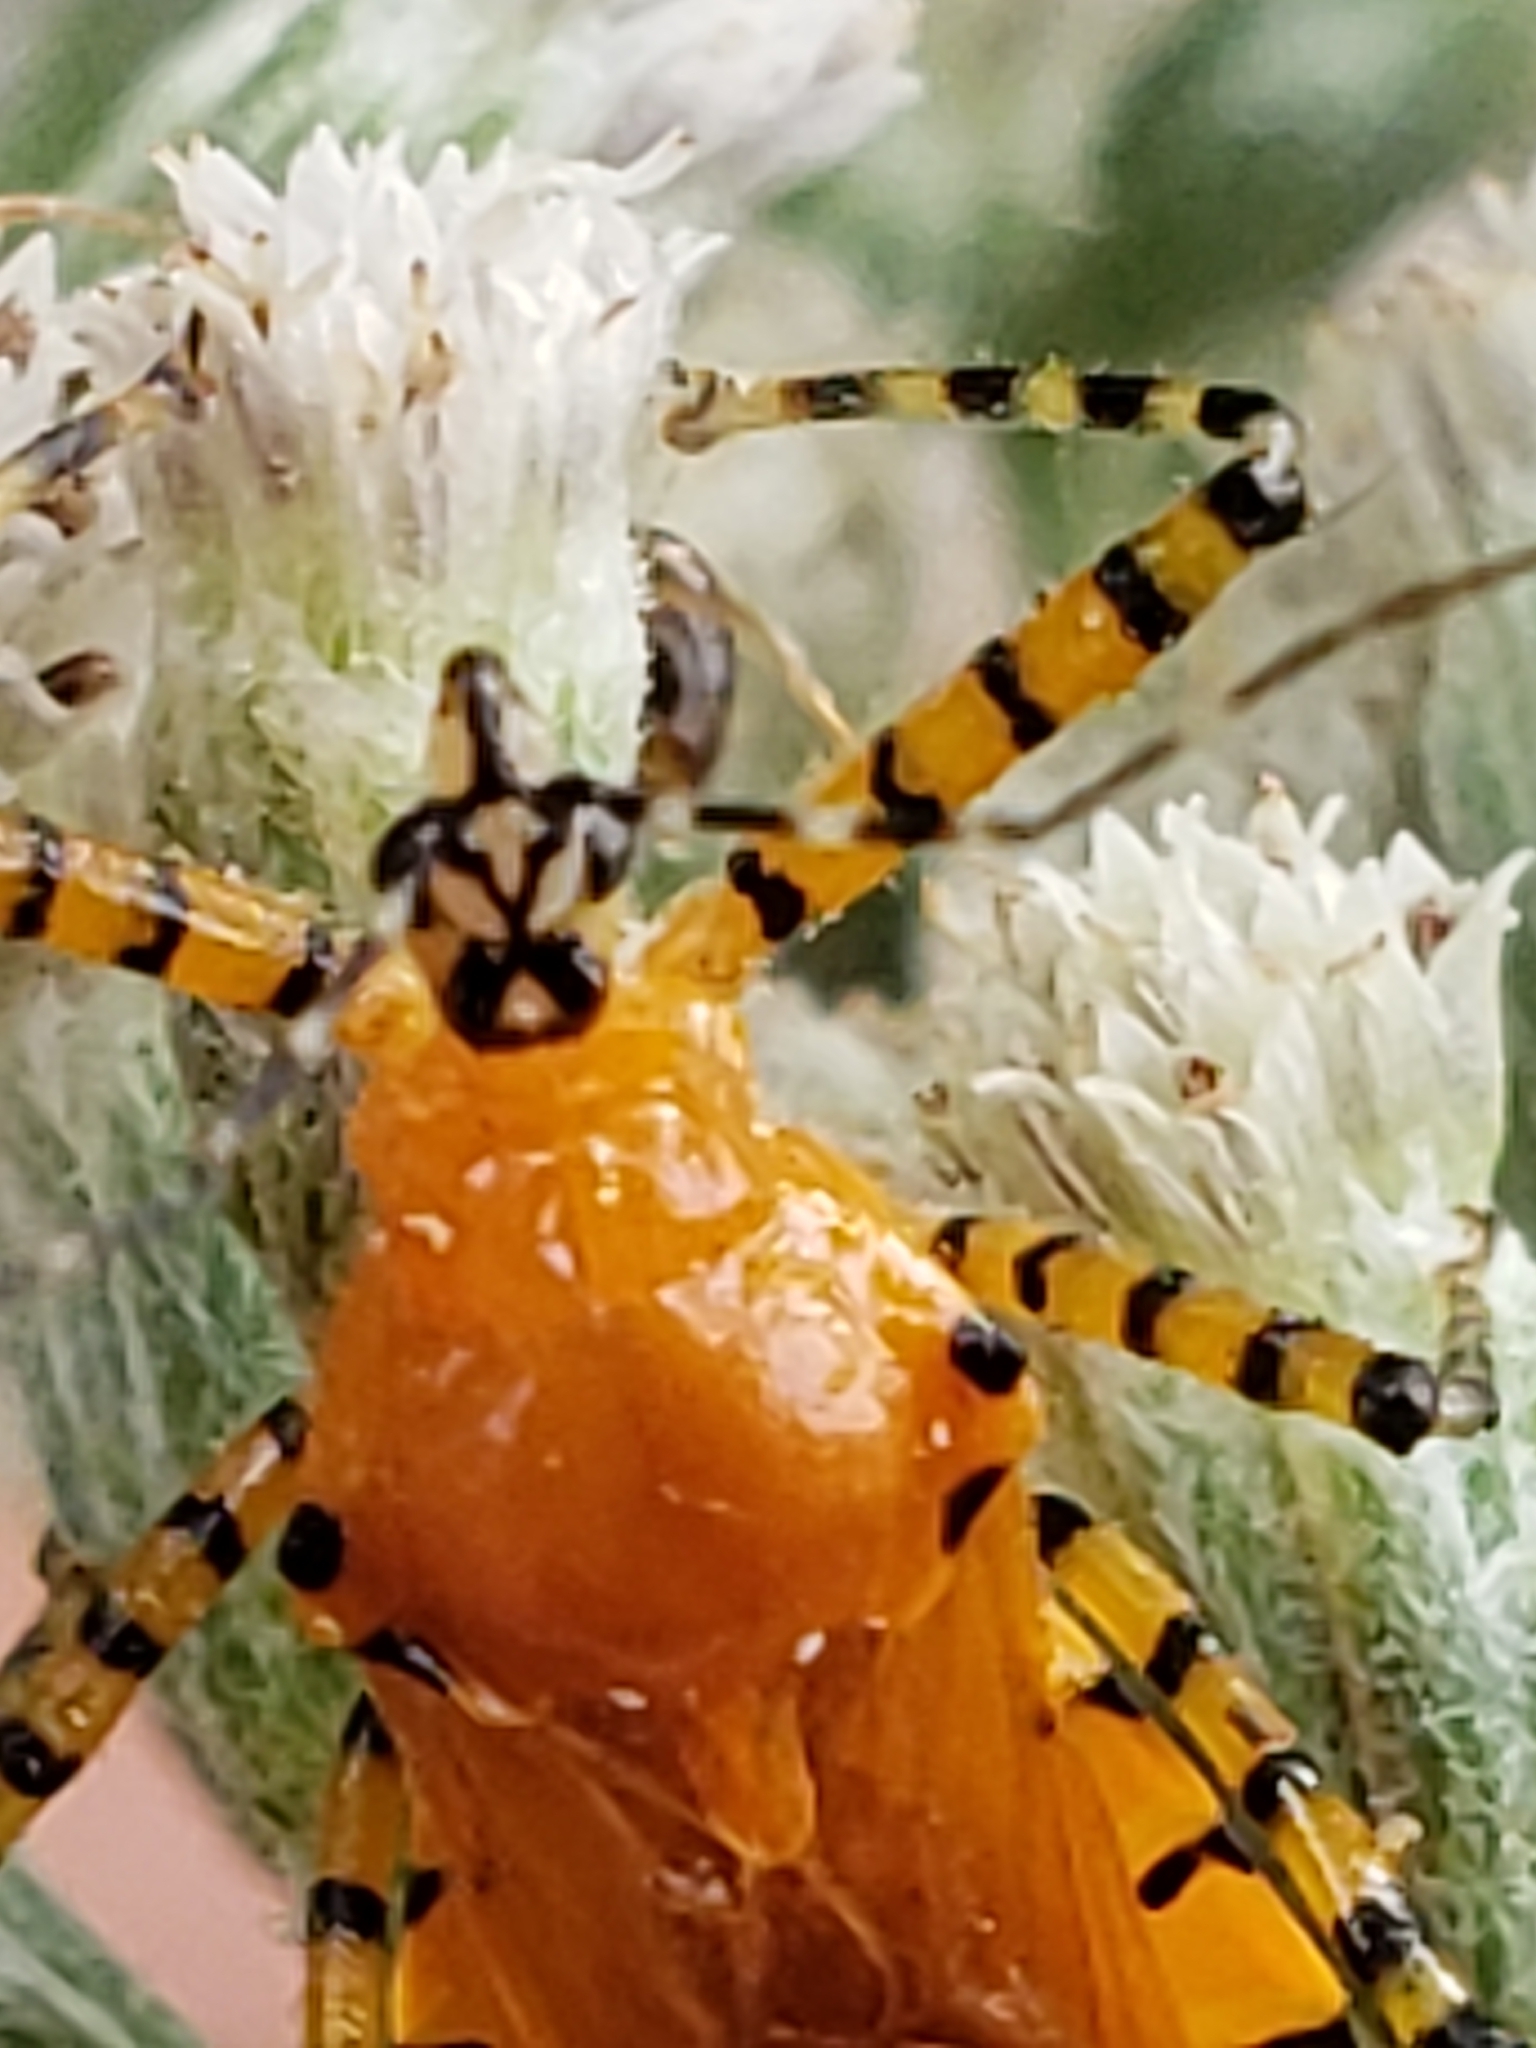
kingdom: Animalia
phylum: Arthropoda
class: Insecta
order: Hemiptera
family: Reduviidae
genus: Pselliopus
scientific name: Pselliopus barberi
